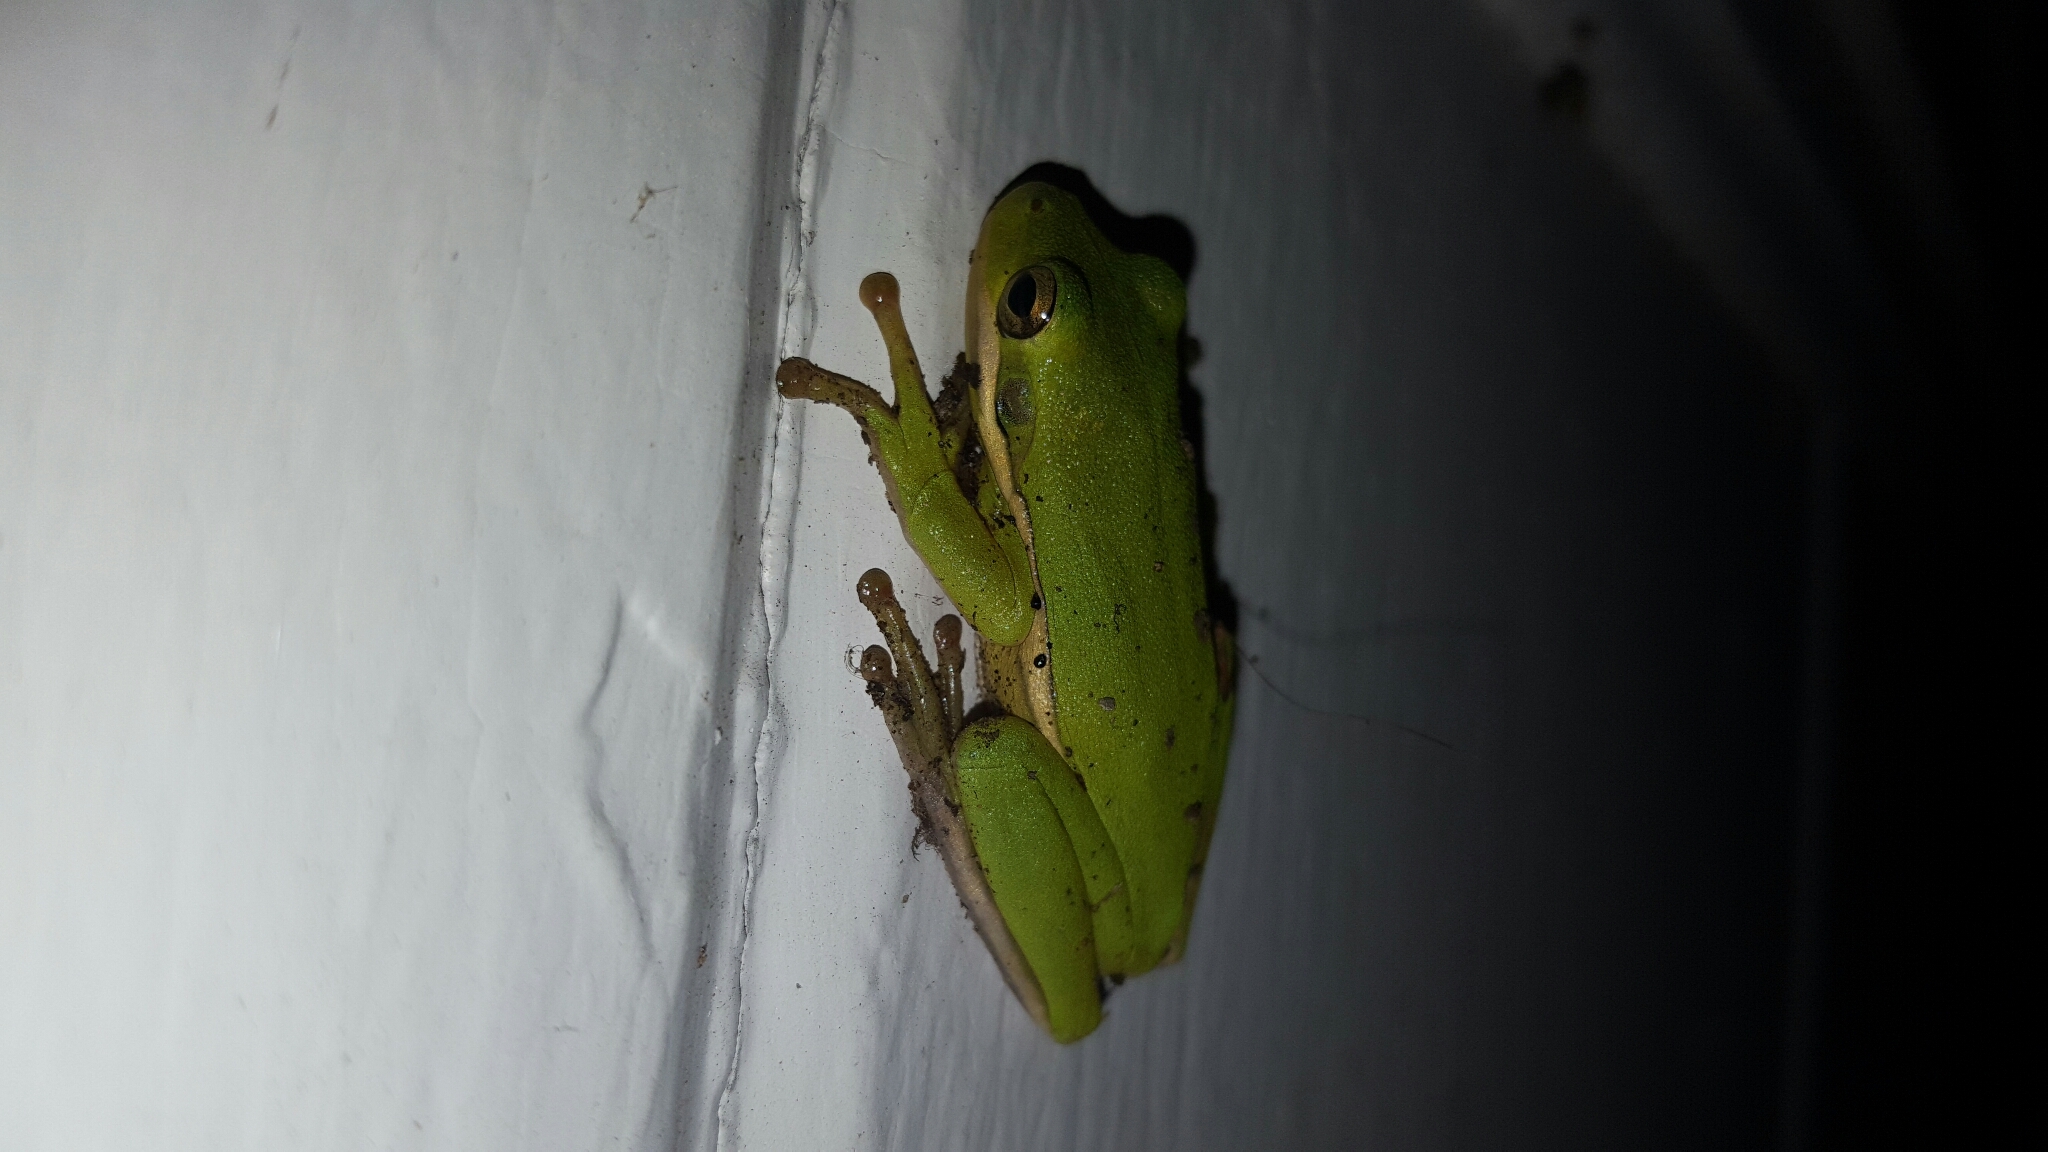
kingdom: Animalia
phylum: Chordata
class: Amphibia
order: Anura
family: Hylidae
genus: Dryophytes
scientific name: Dryophytes cinereus
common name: Green treefrog
